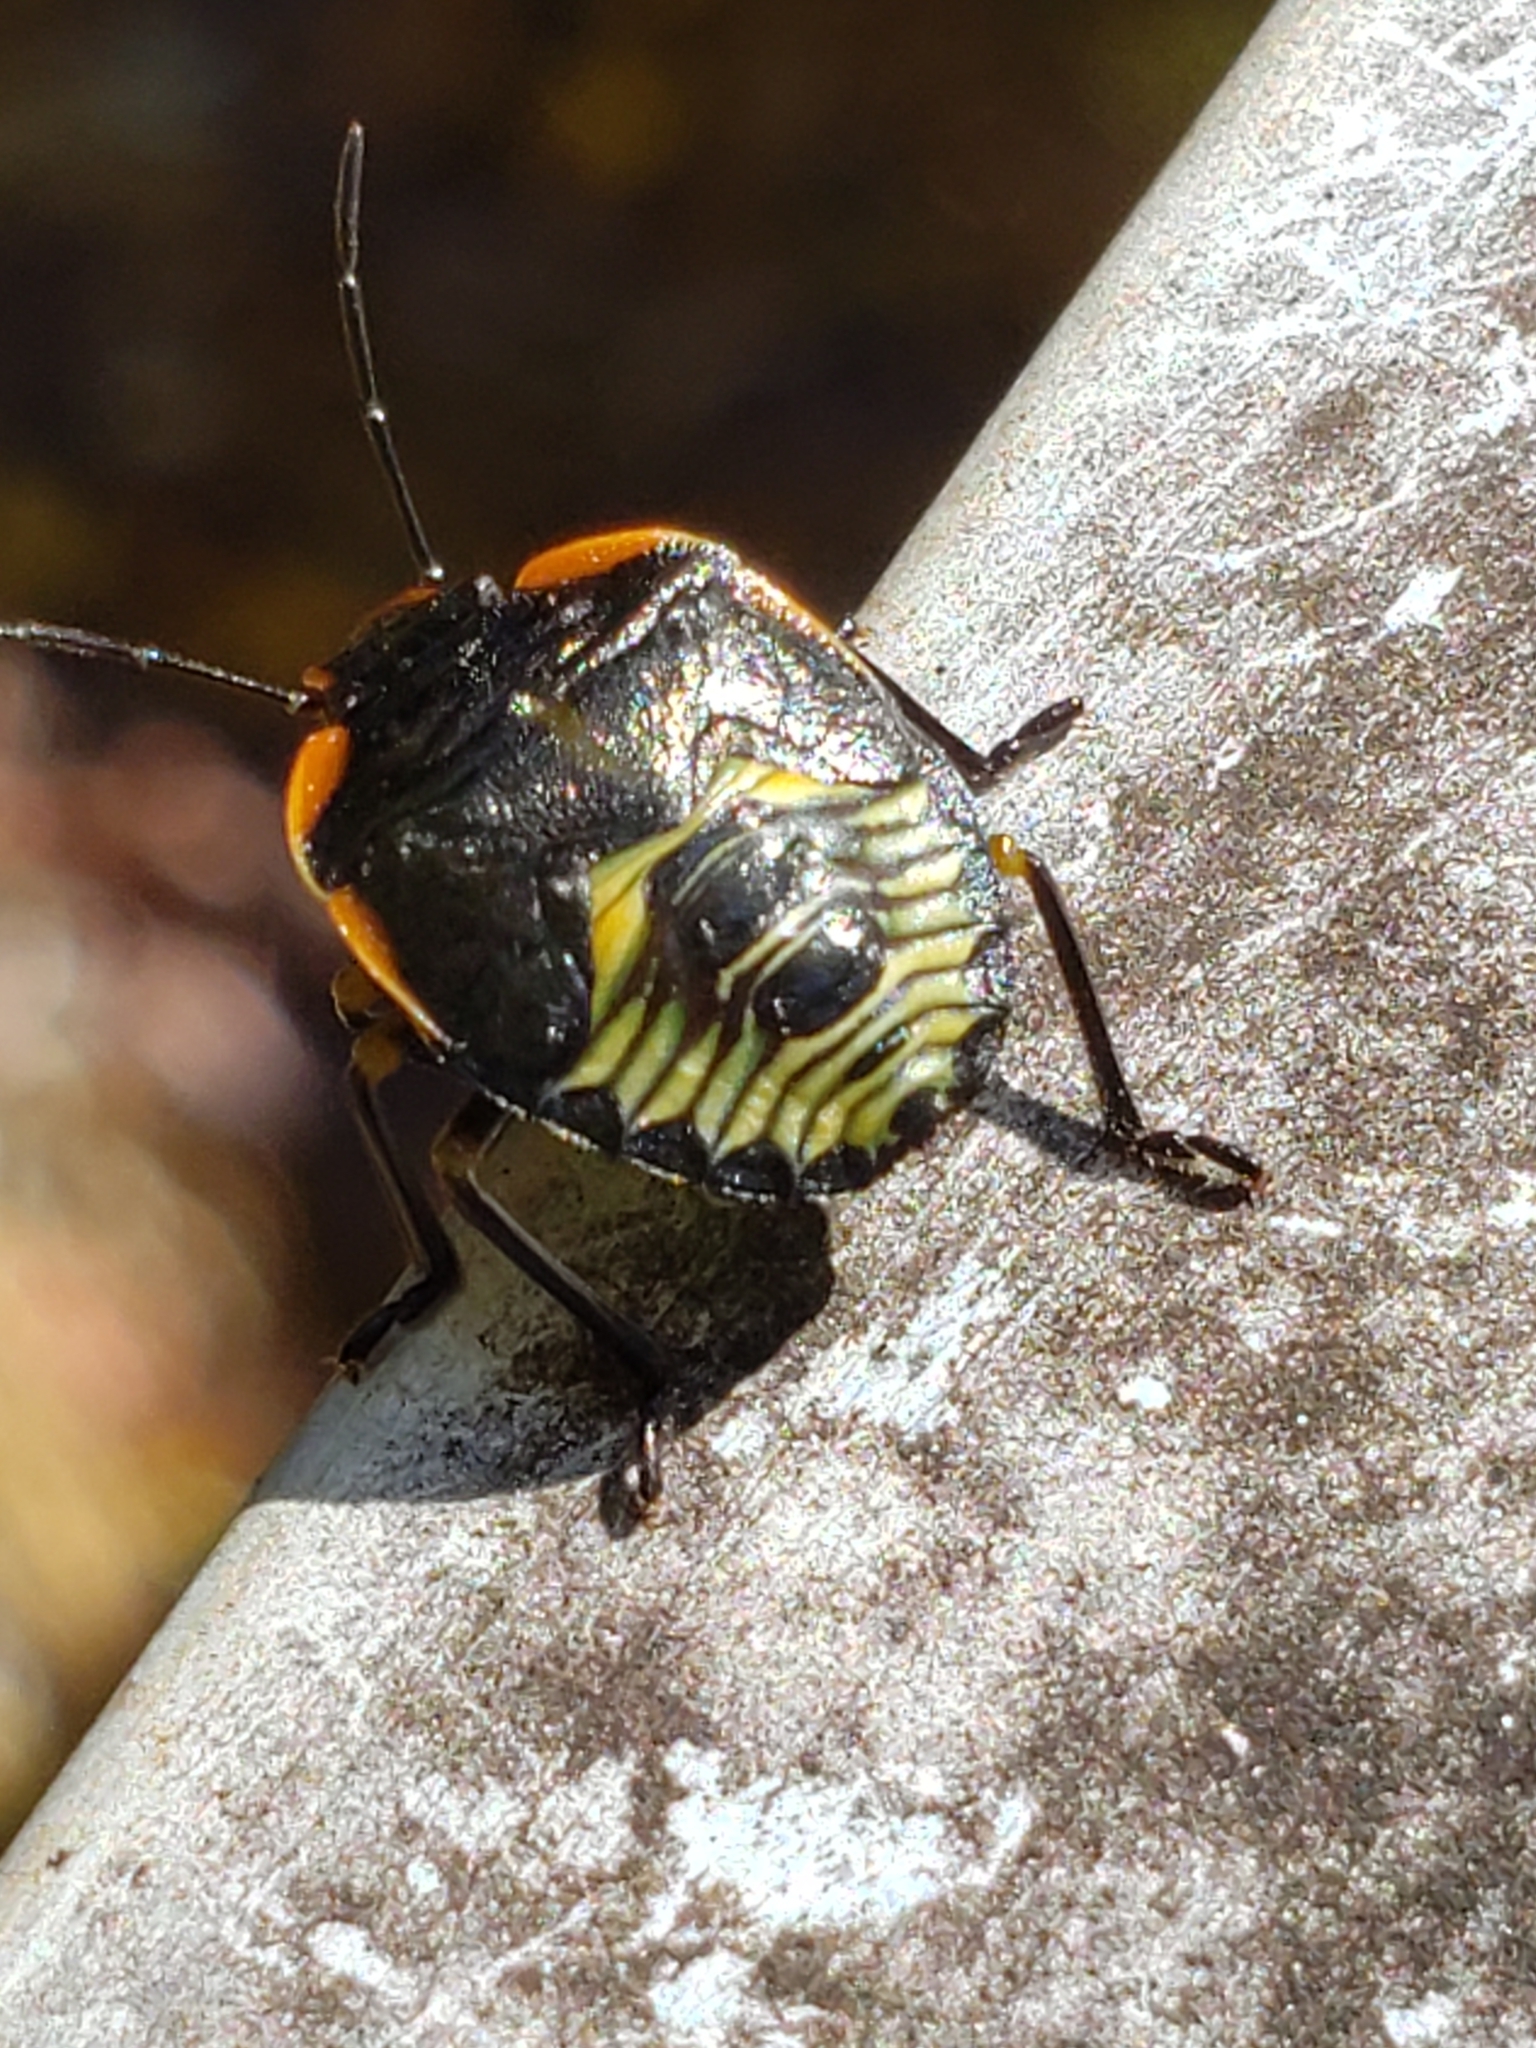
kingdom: Animalia
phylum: Arthropoda
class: Insecta
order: Hemiptera
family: Pentatomidae
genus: Chinavia
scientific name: Chinavia hilaris
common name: Green stink bug
